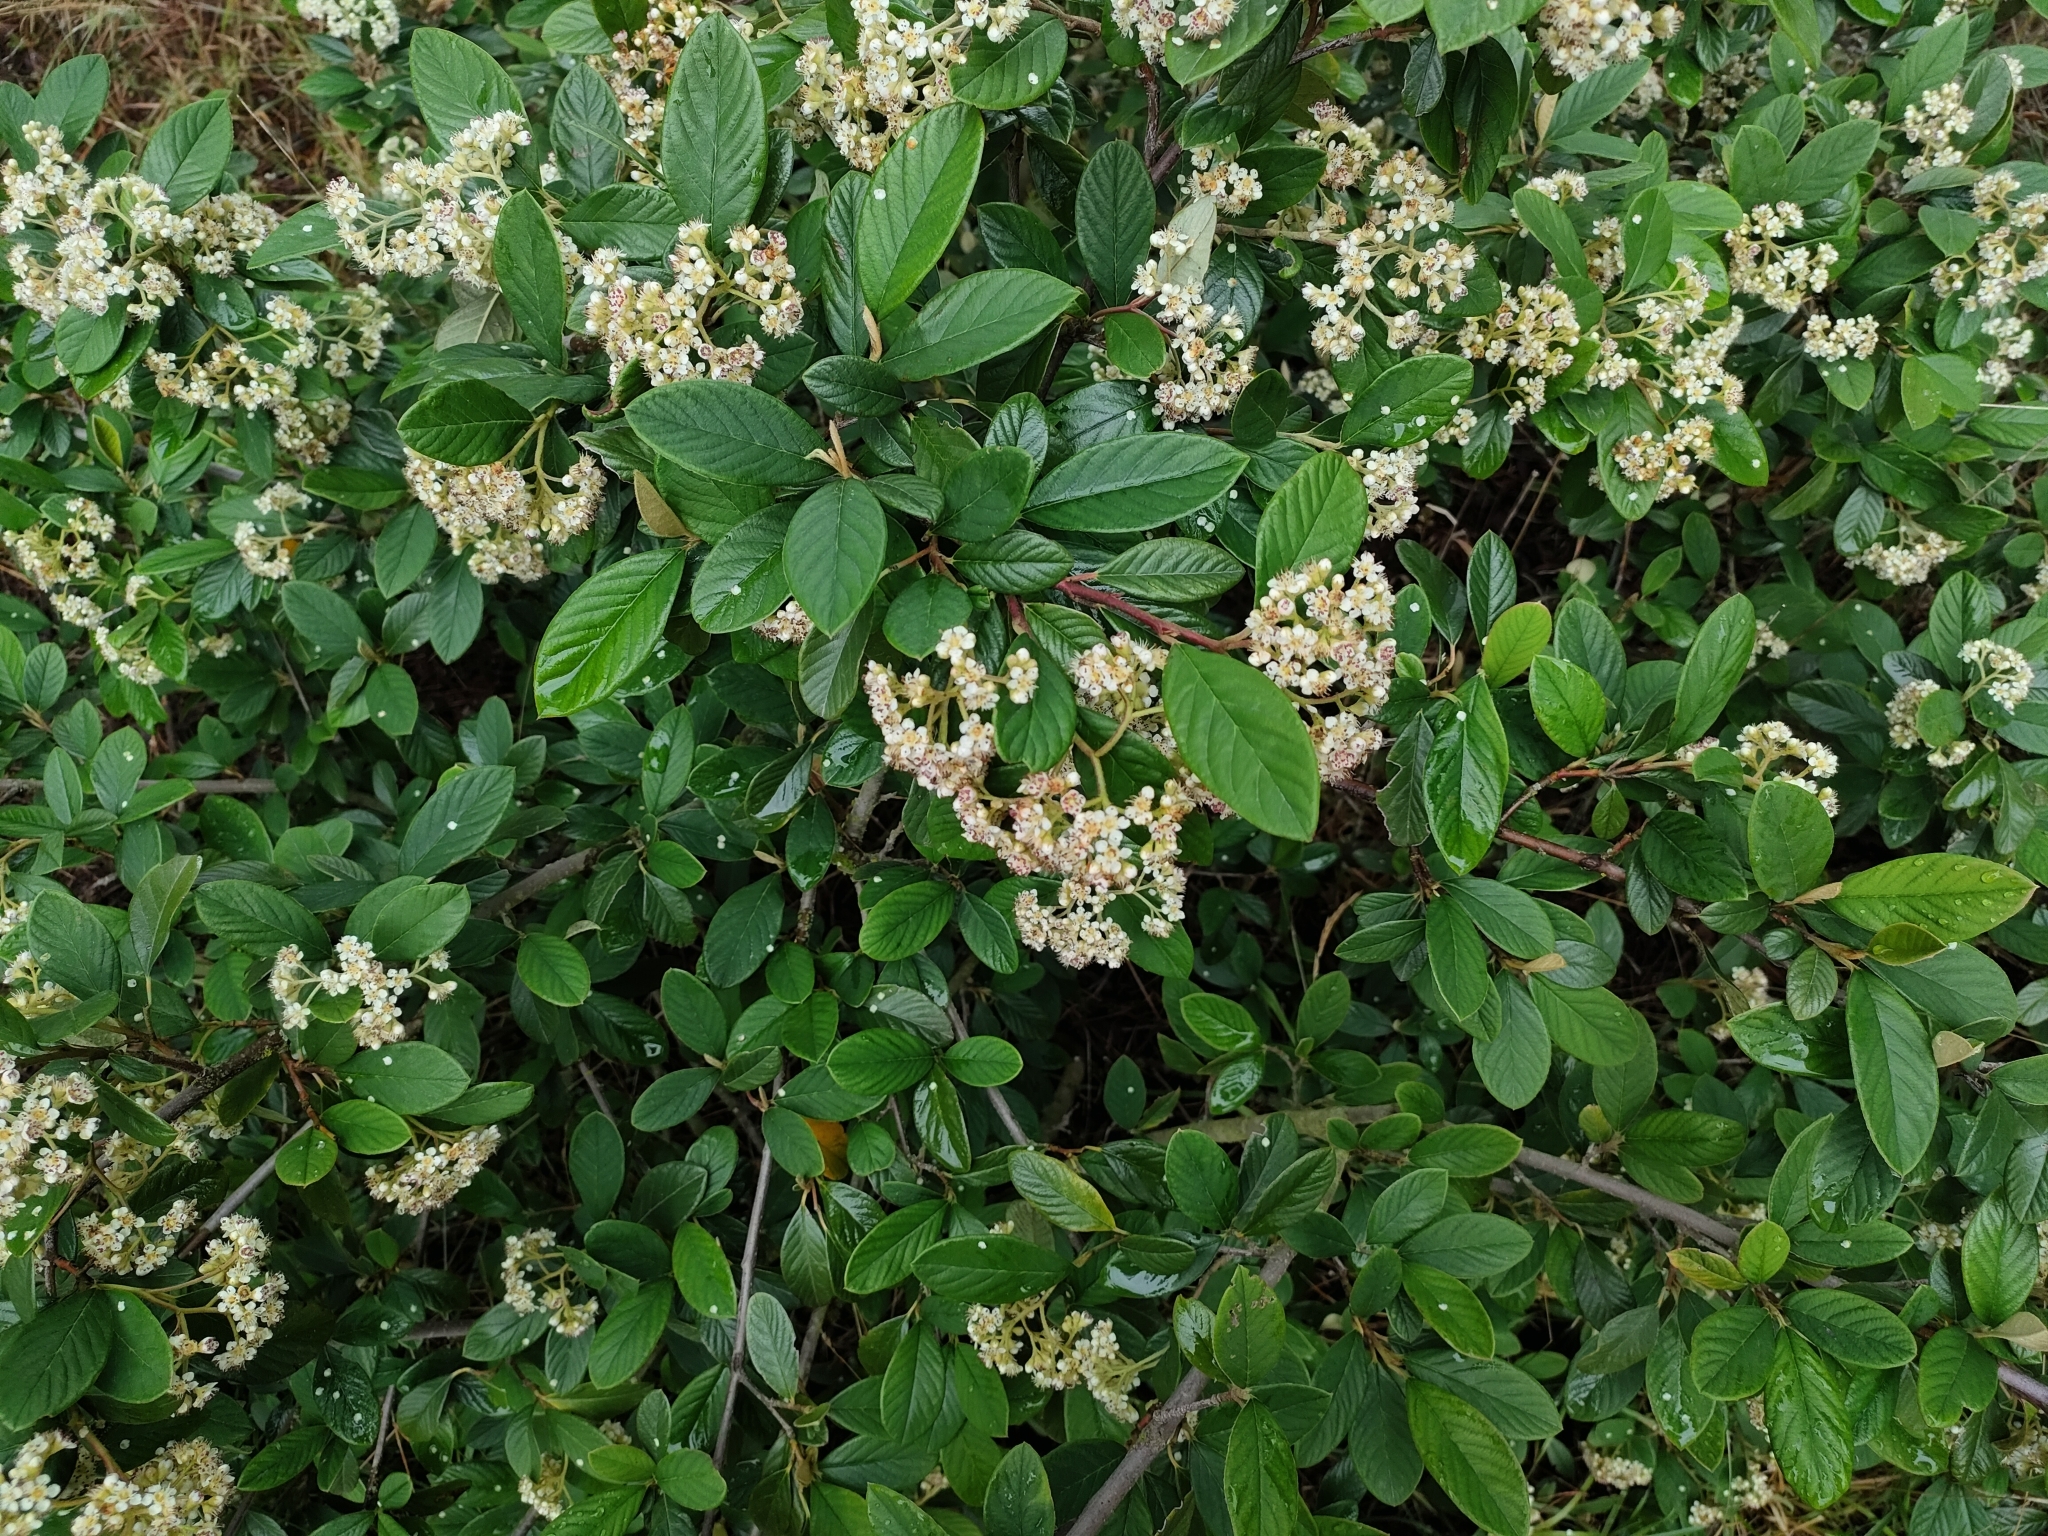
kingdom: Plantae
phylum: Tracheophyta
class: Magnoliopsida
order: Rosales
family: Rosaceae
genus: Cotoneaster
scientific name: Cotoneaster coriaceus
